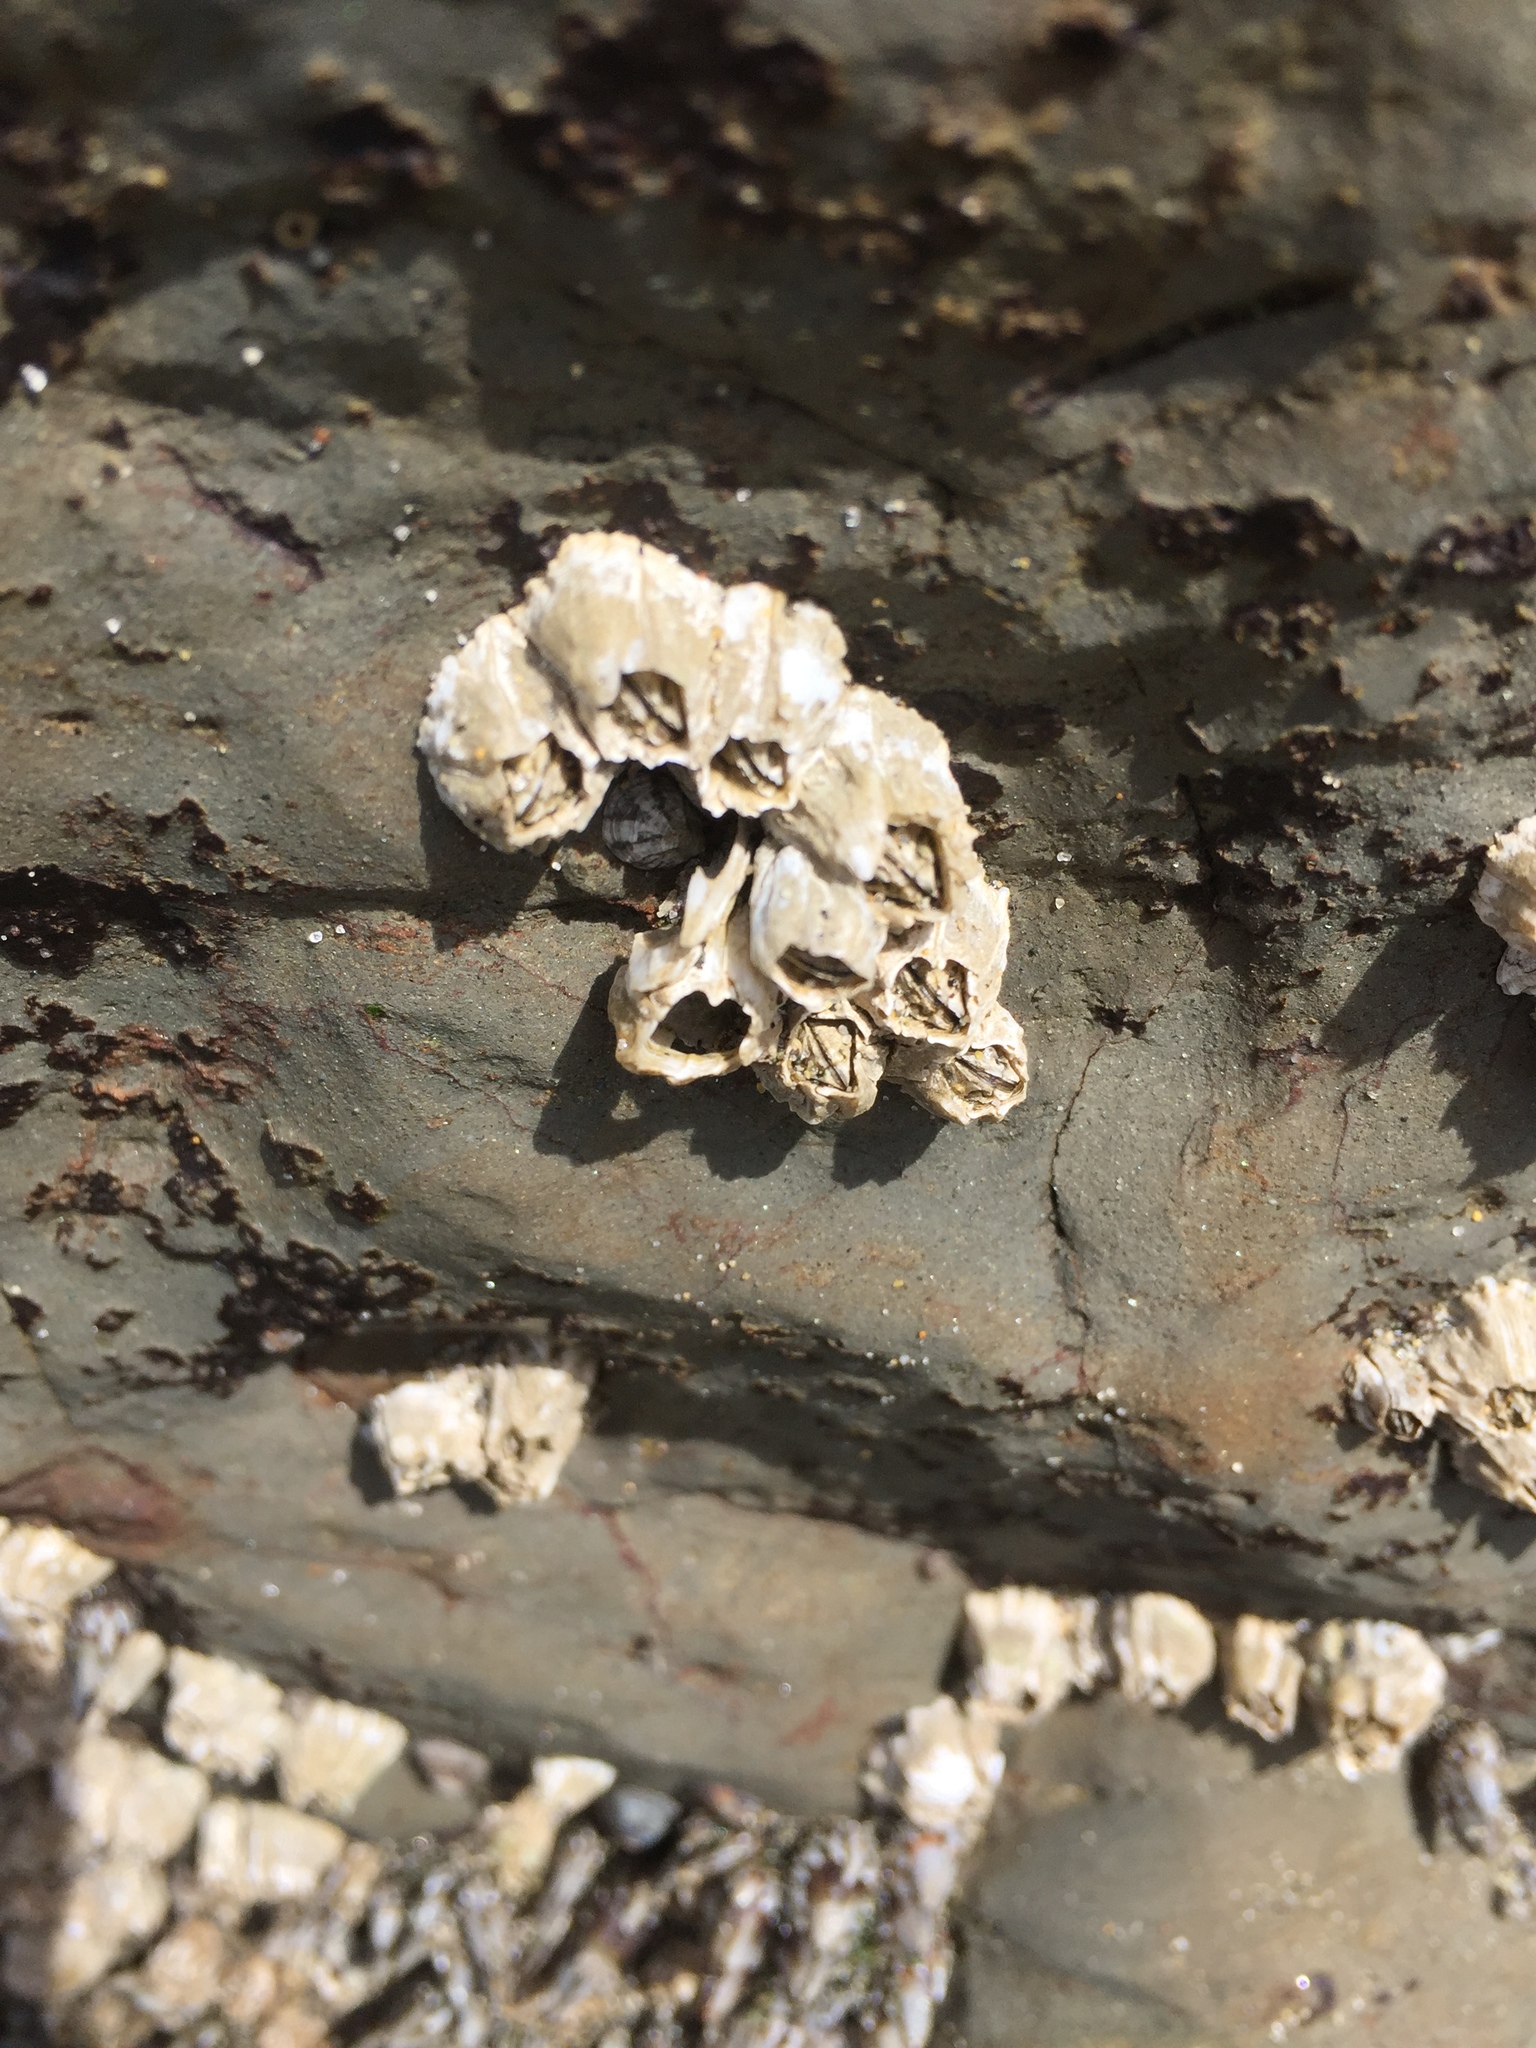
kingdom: Animalia
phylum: Arthropoda
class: Maxillopoda
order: Sessilia
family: Balanidae
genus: Balanus
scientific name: Balanus glandula
